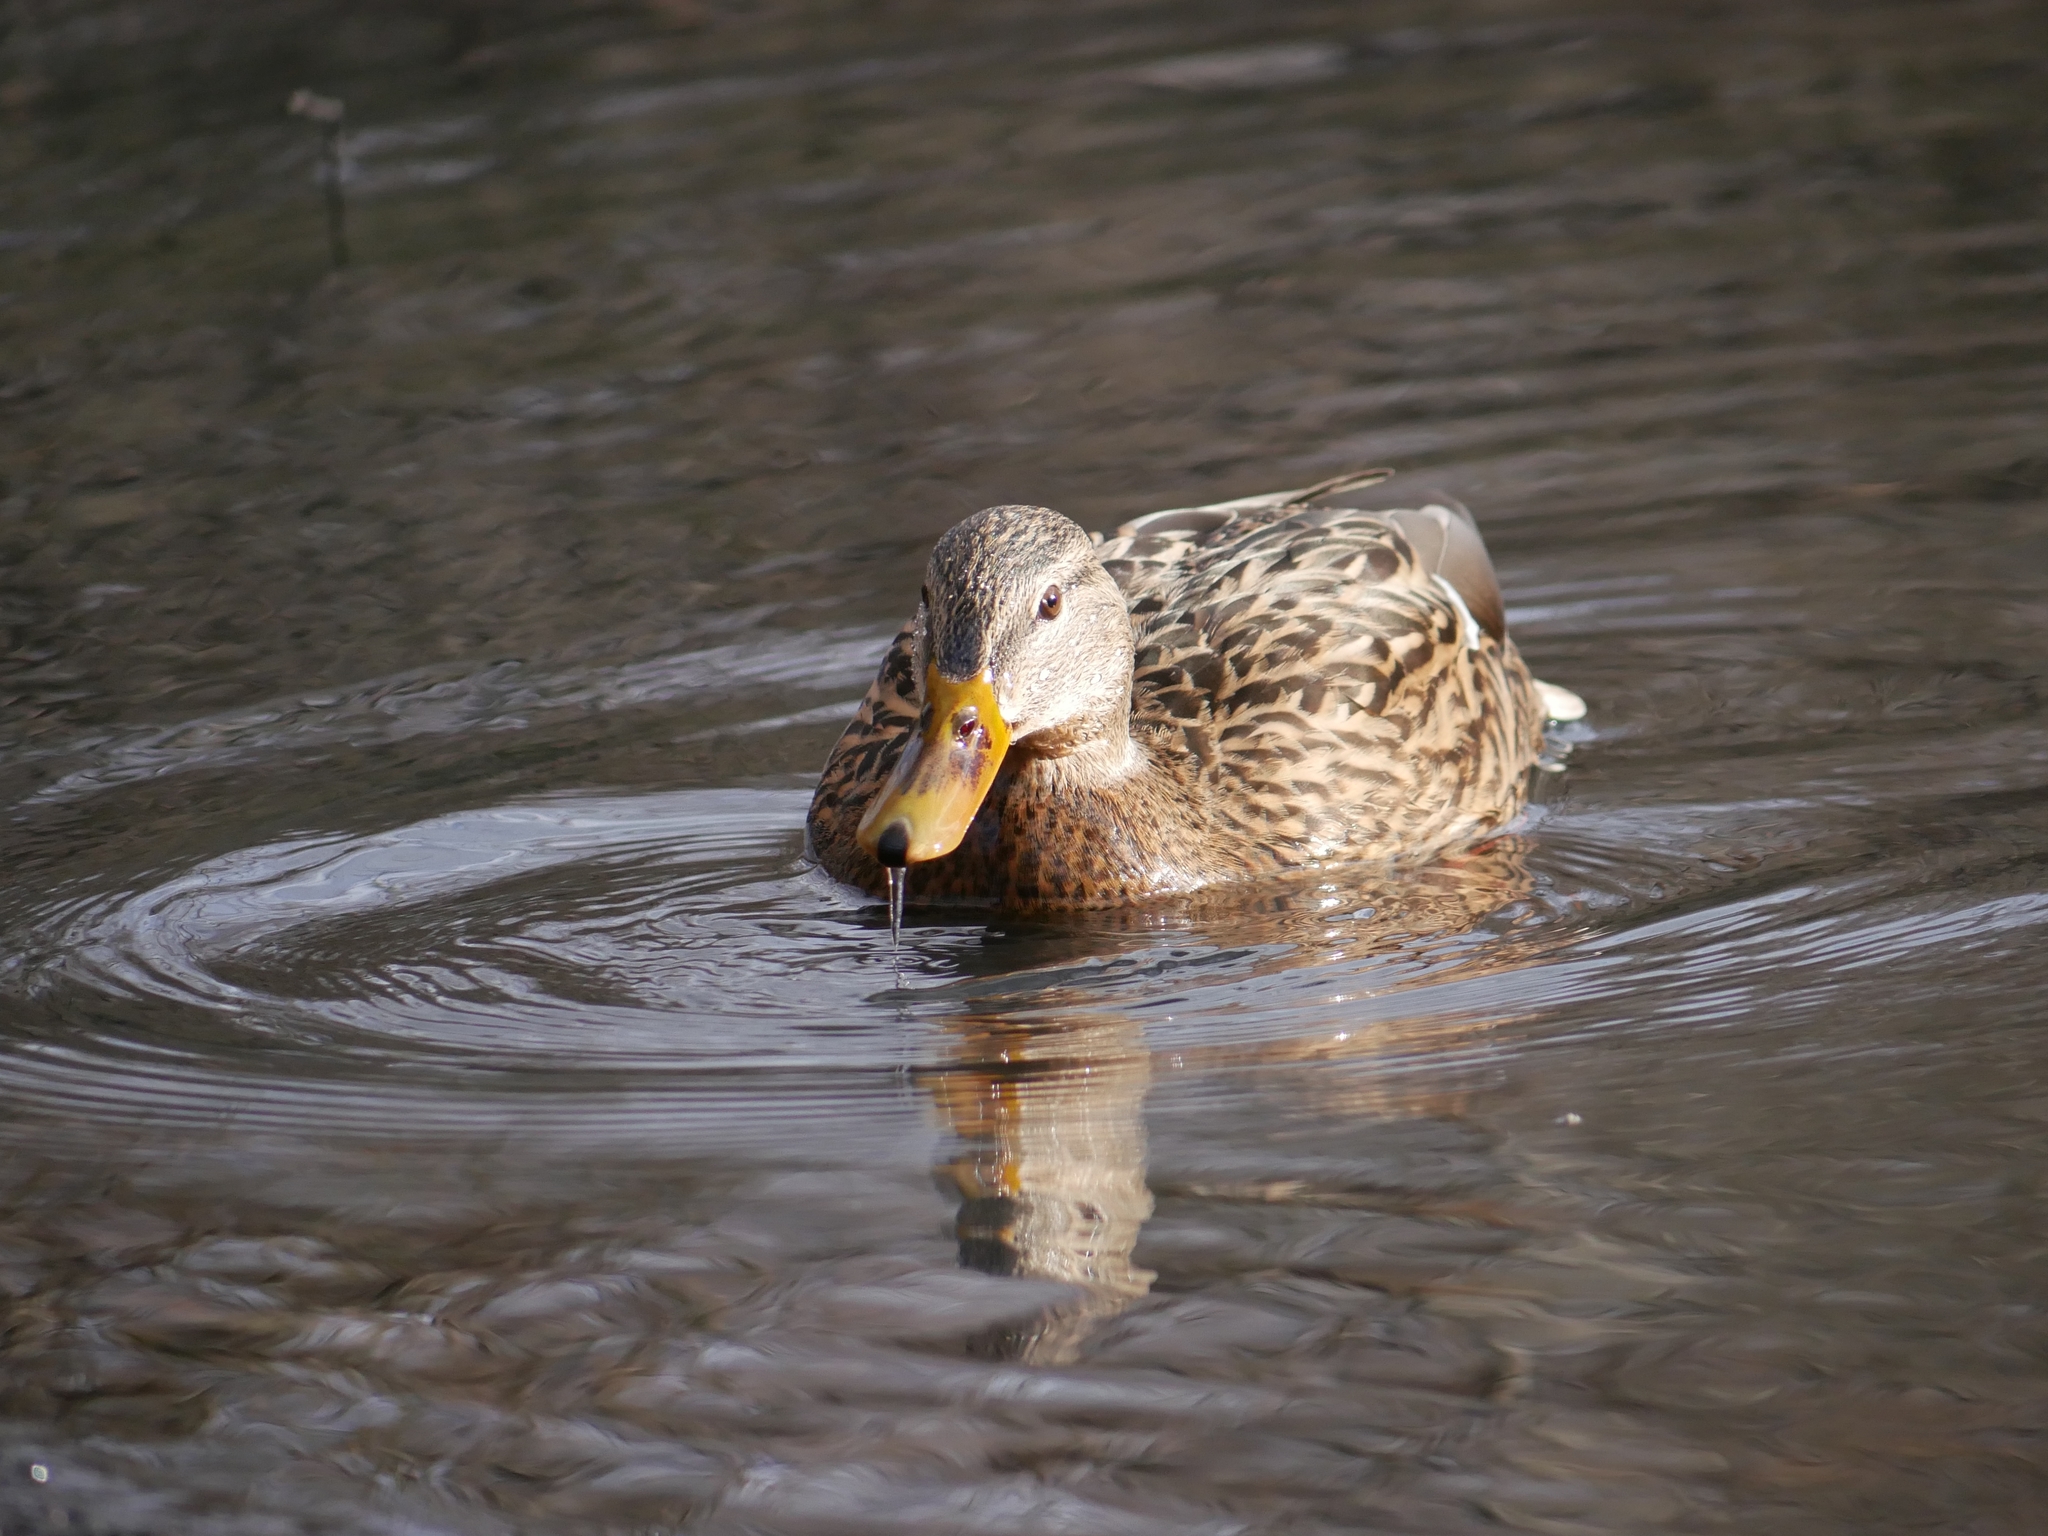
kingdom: Animalia
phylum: Chordata
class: Aves
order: Anseriformes
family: Anatidae
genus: Anas
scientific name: Anas platyrhynchos
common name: Mallard
